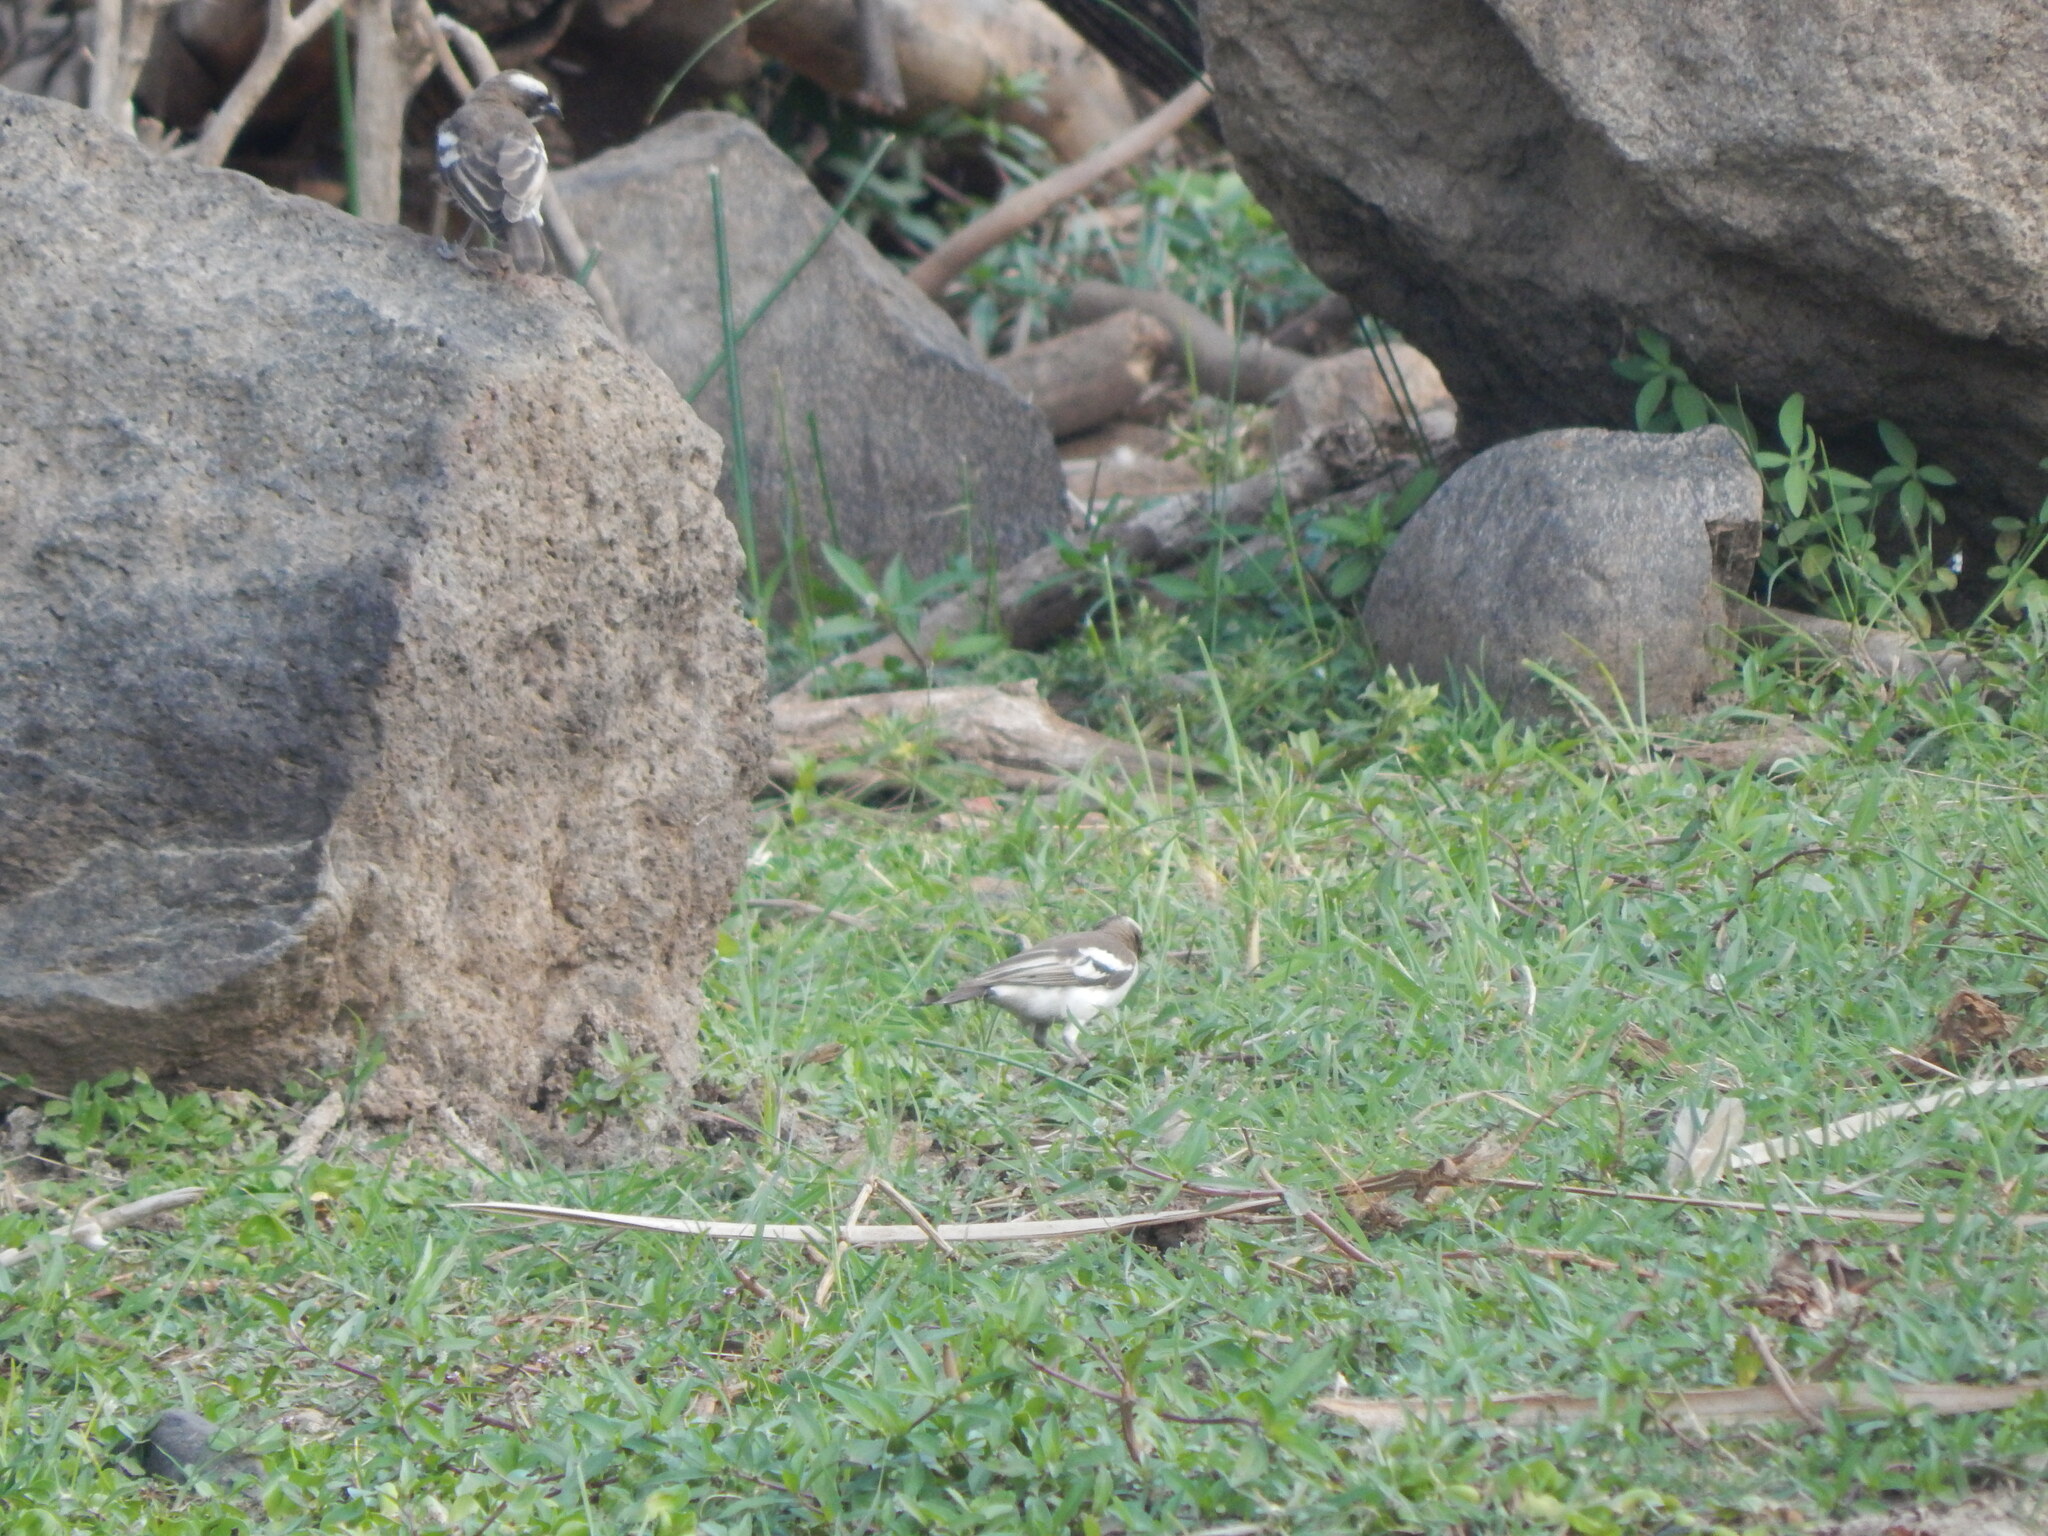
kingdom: Animalia
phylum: Chordata
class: Aves
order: Passeriformes
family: Passeridae
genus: Plocepasser
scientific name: Plocepasser mahali
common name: White-browed sparrow-weaver
